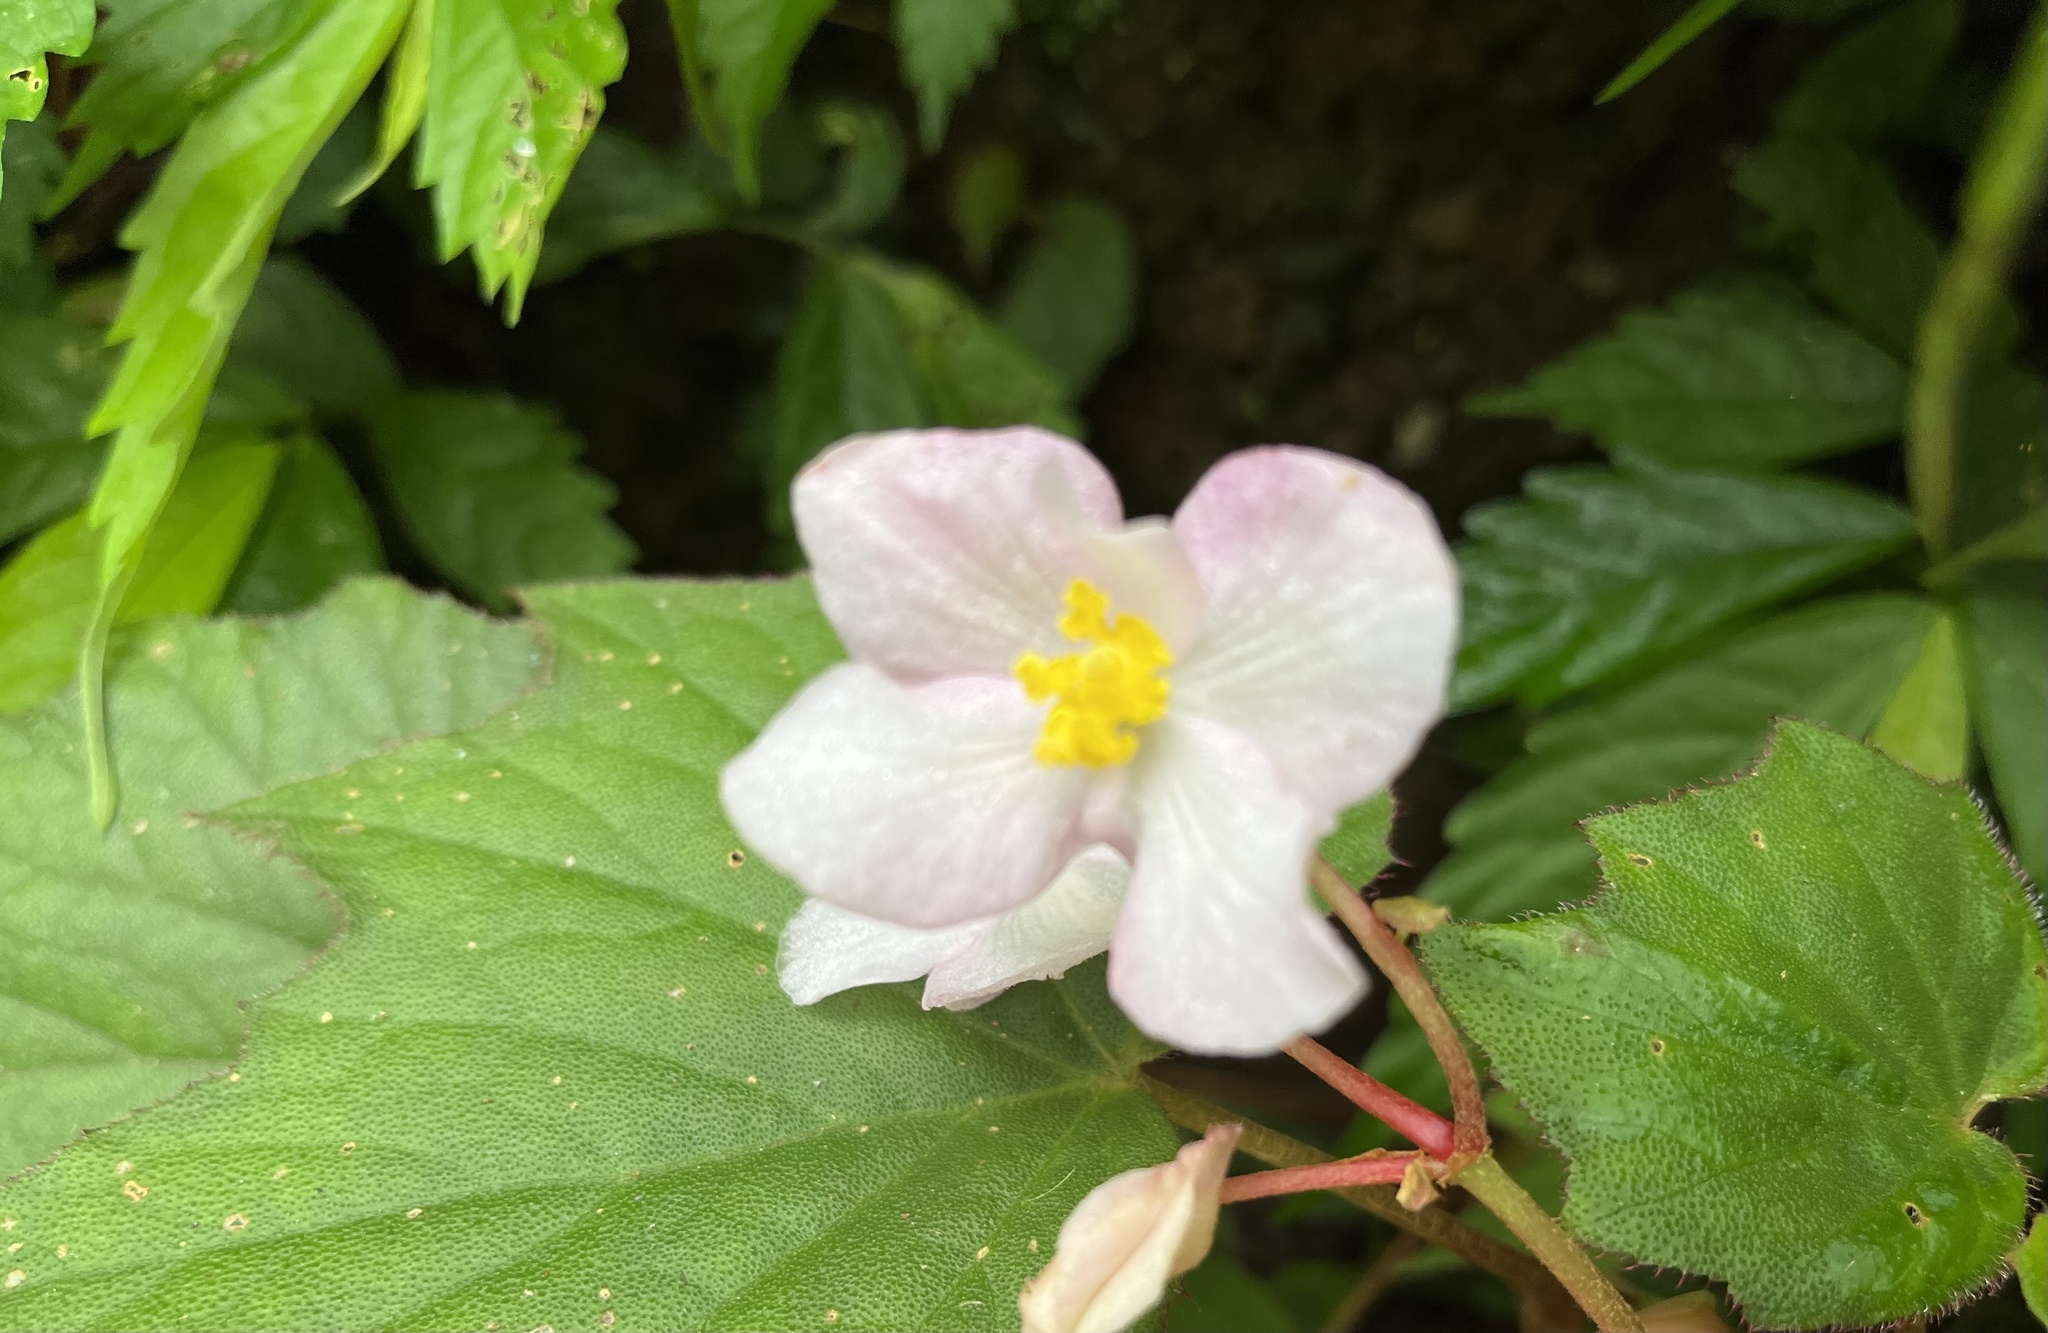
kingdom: Plantae
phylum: Tracheophyta
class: Magnoliopsida
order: Cucurbitales
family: Begoniaceae
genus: Begonia
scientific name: Begonia palmata
